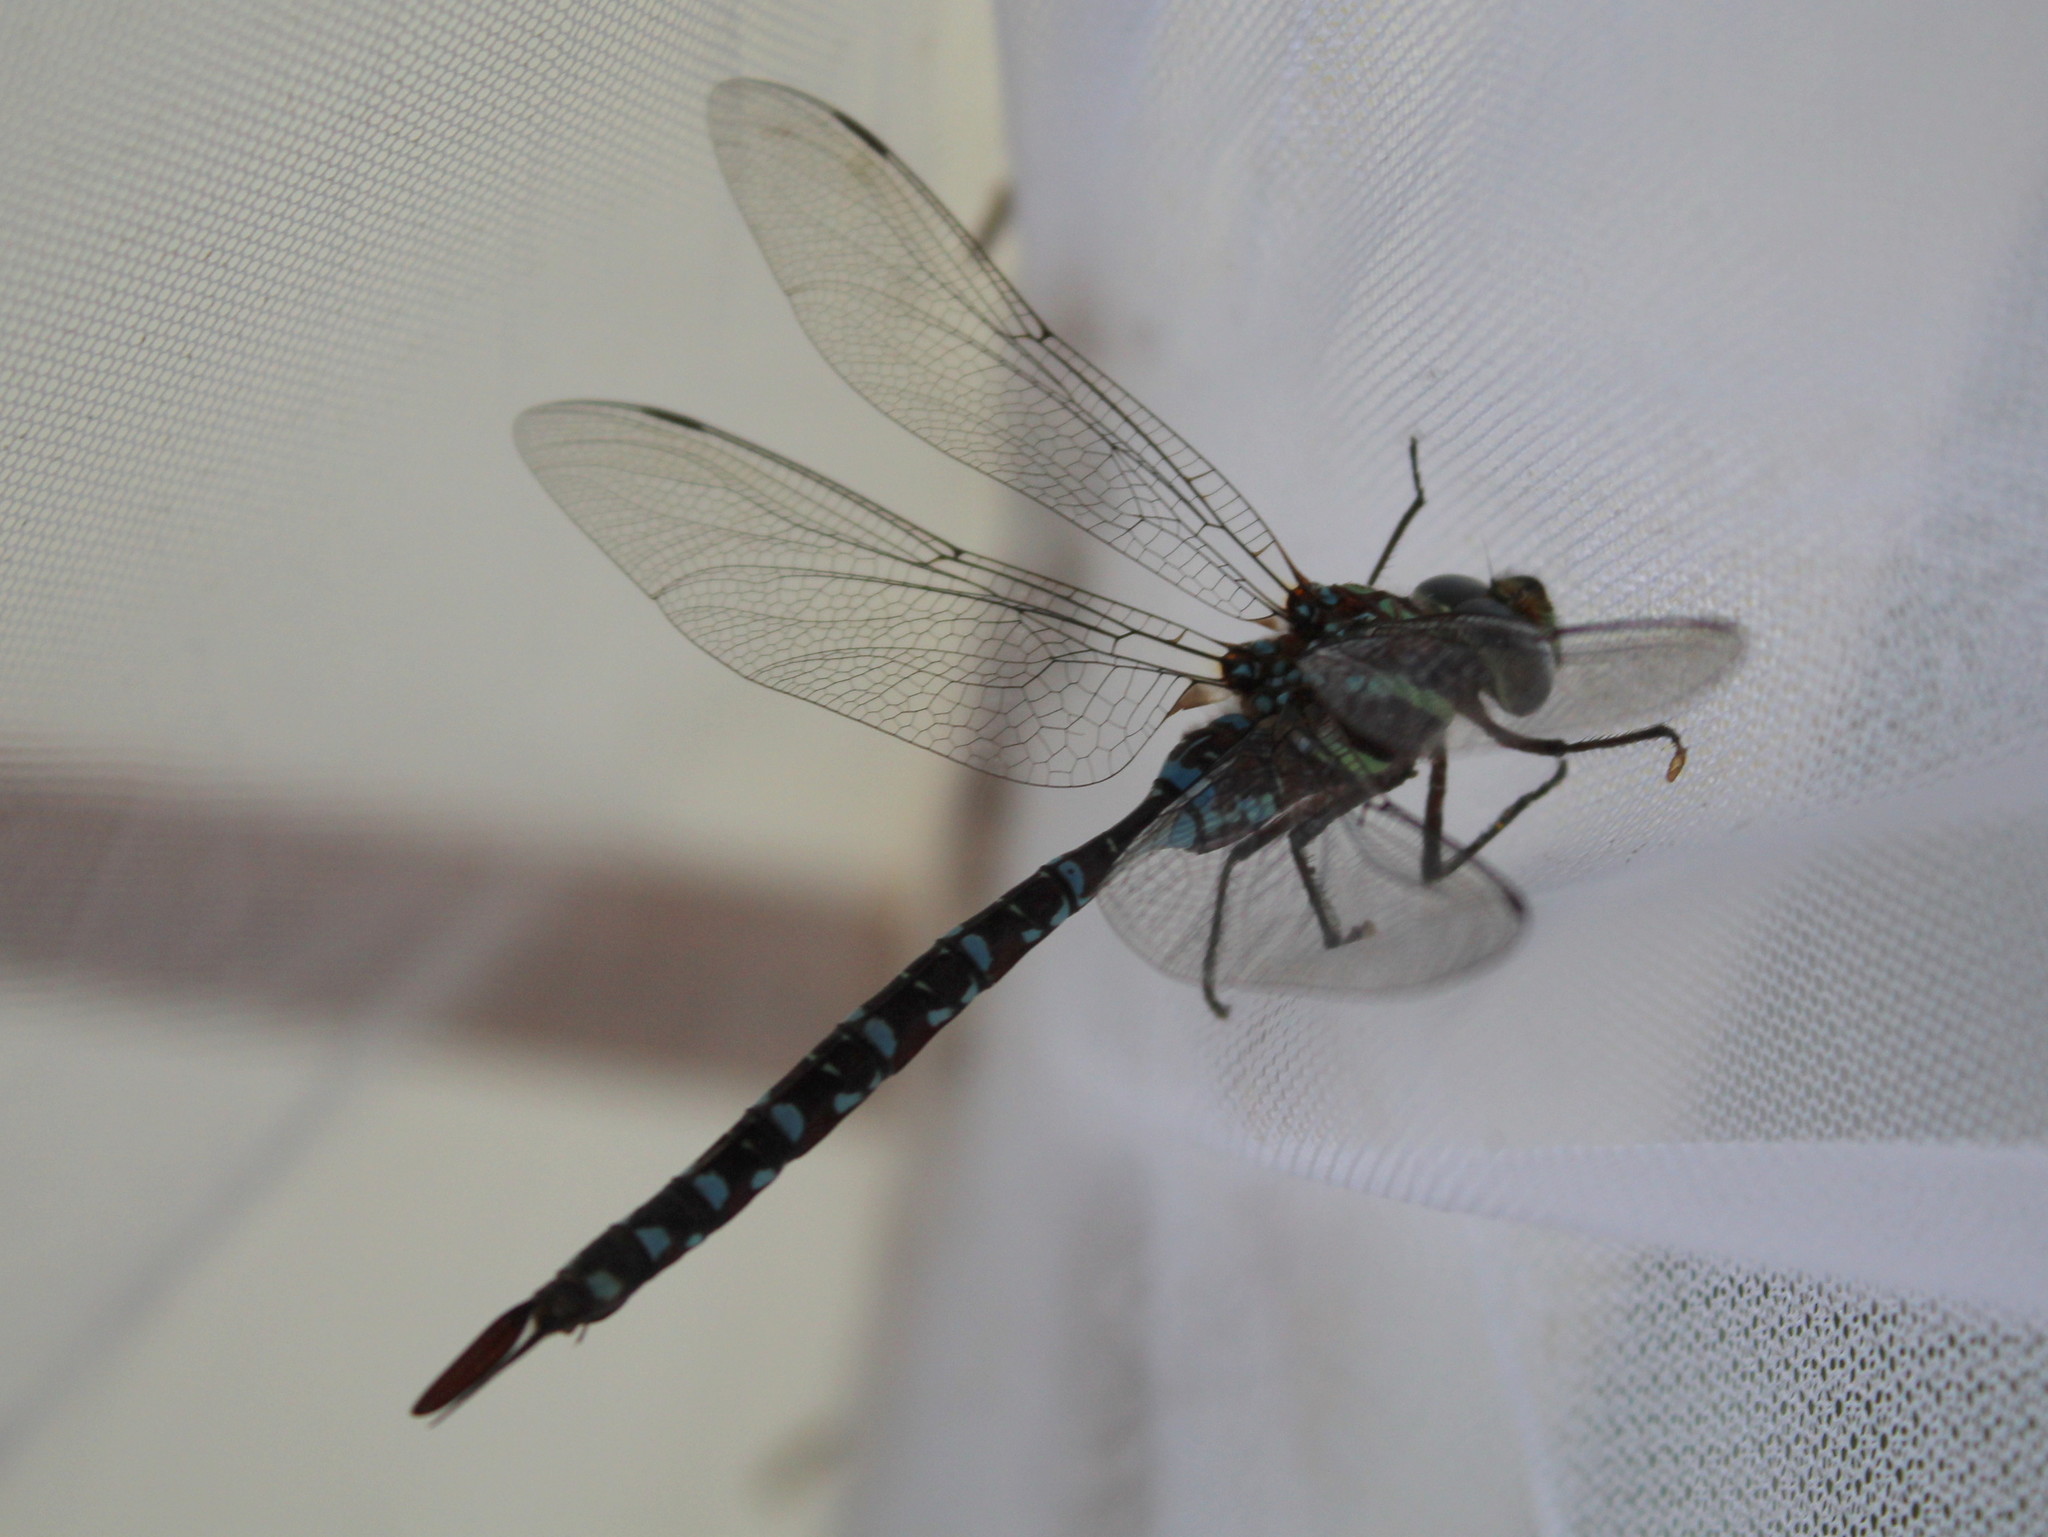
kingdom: Animalia
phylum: Arthropoda
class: Insecta
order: Odonata
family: Aeshnidae
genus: Aeshna
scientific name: Aeshna tuberculifera
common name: Aeschne à tubercules
